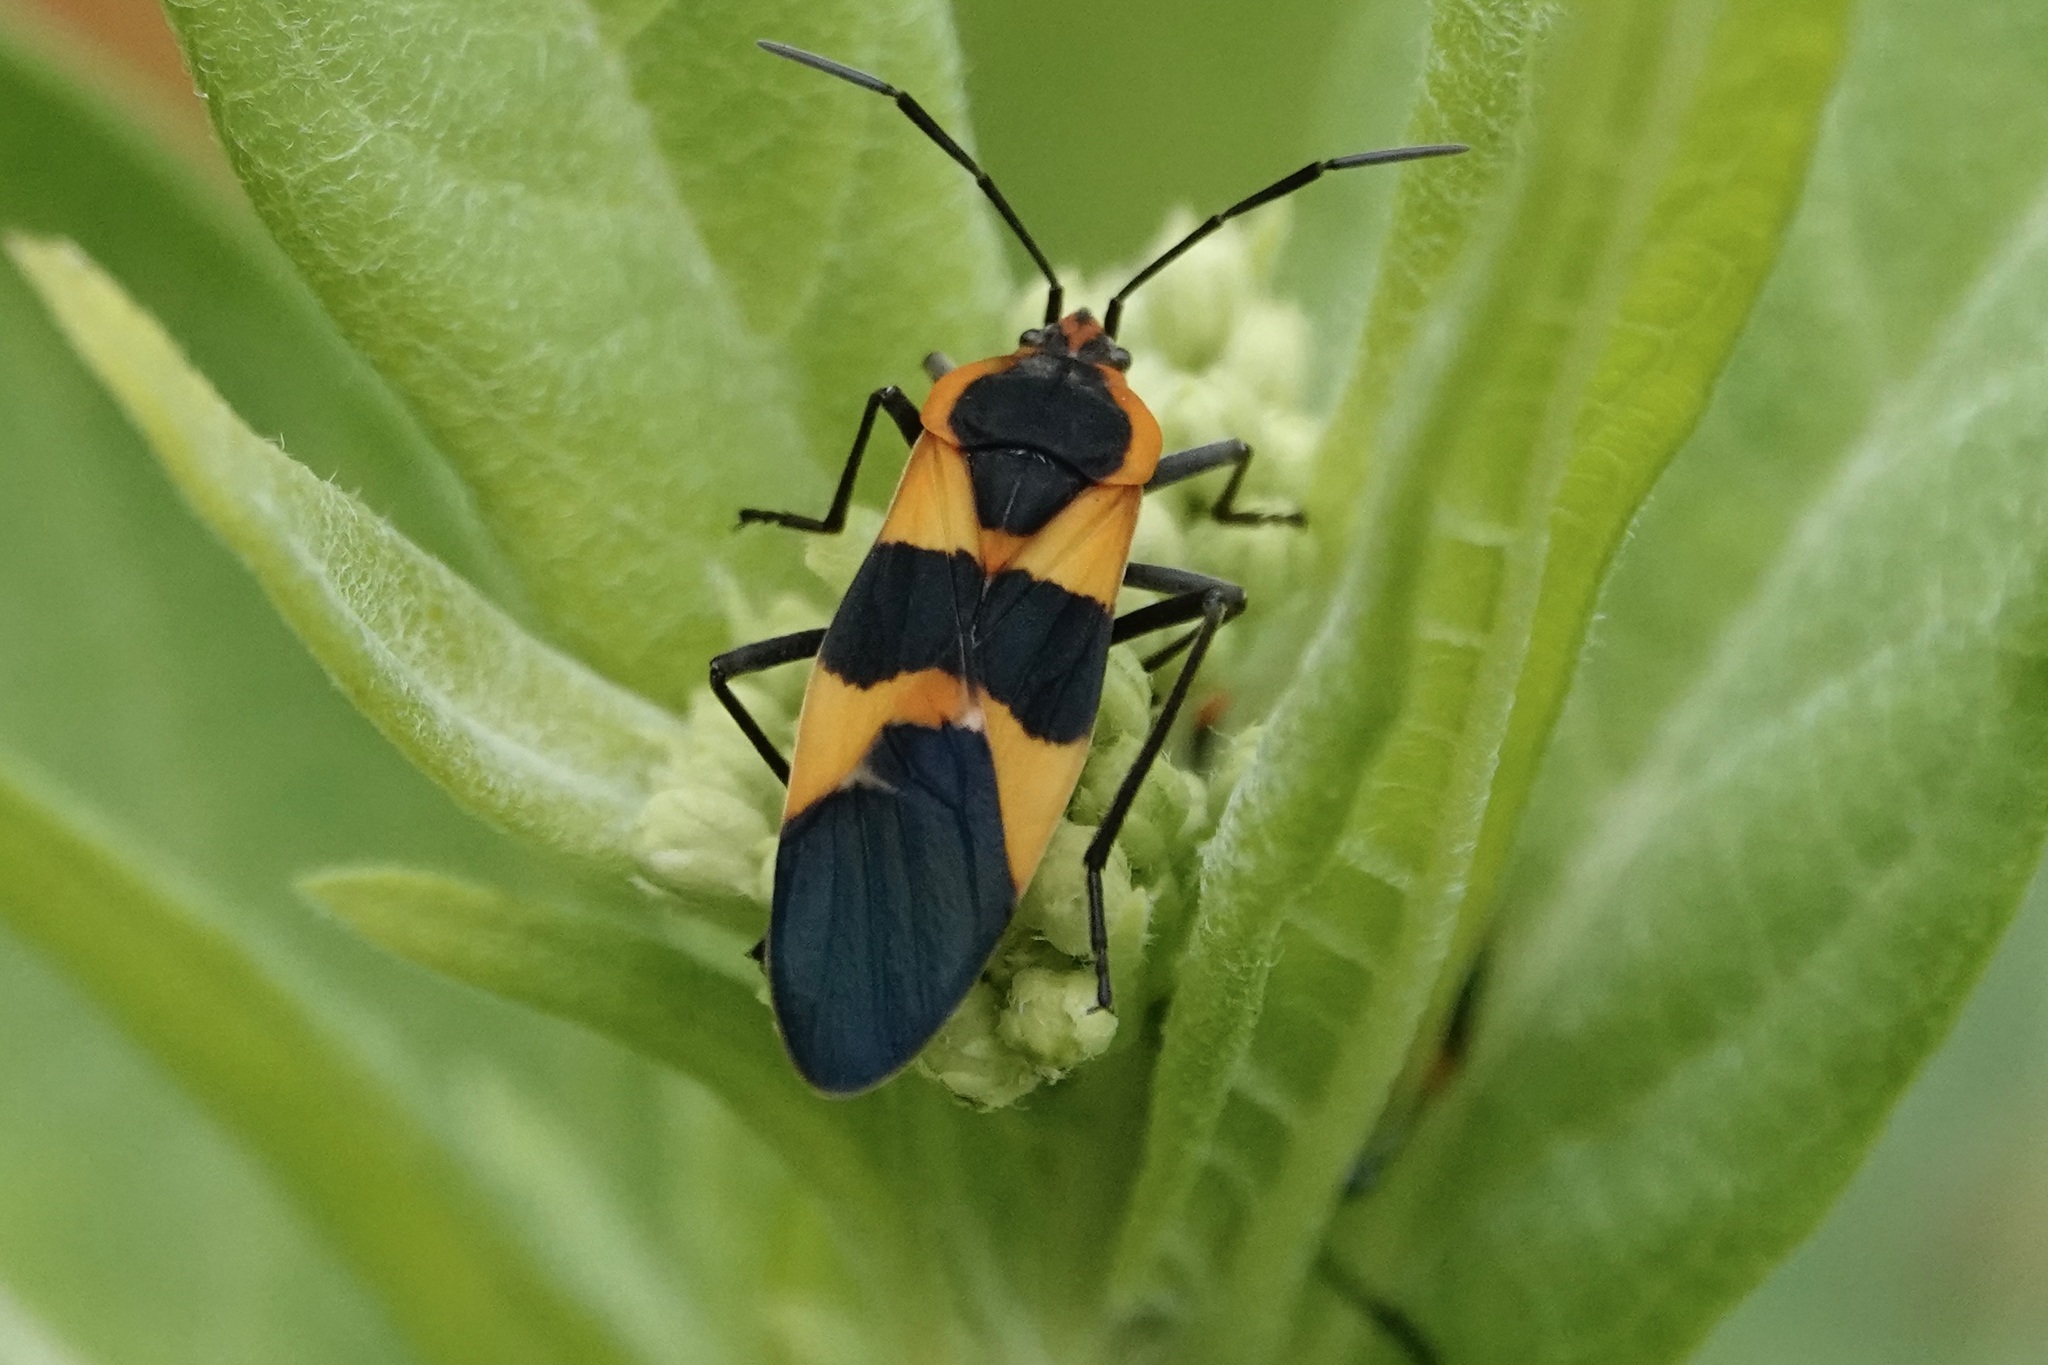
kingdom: Animalia
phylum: Arthropoda
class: Insecta
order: Hemiptera
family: Lygaeidae
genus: Oncopeltus
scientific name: Oncopeltus fasciatus
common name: Large milkweed bug
